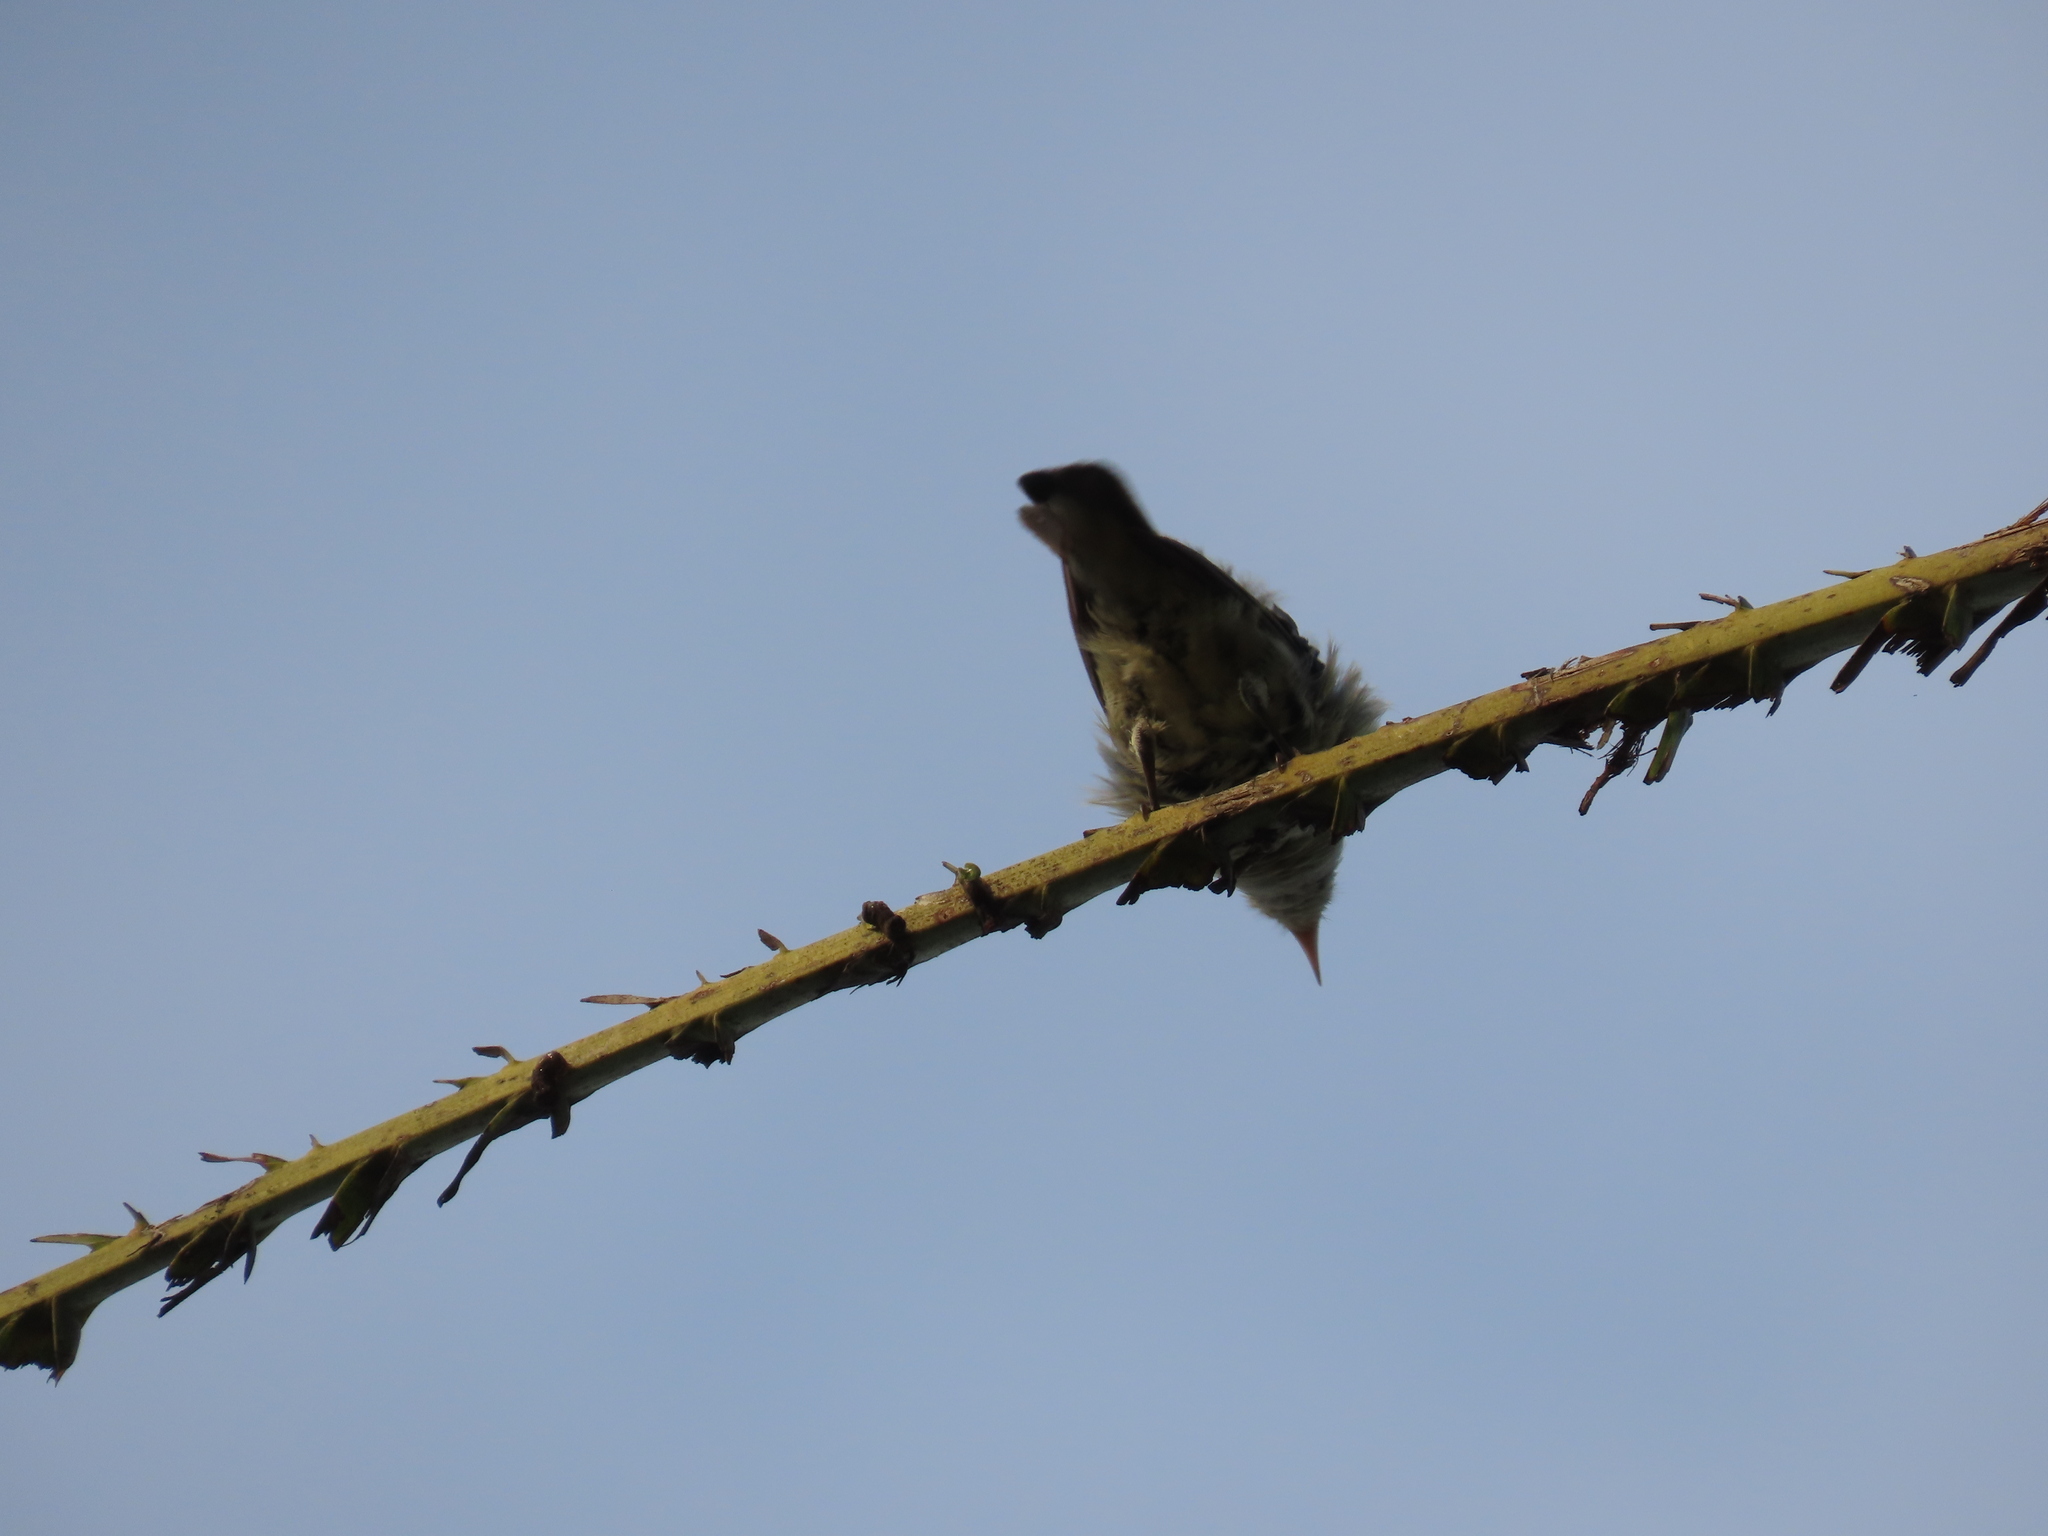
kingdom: Animalia
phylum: Chordata
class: Aves
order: Passeriformes
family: Dicaeidae
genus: Dicaeum
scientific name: Dicaeum erythrorhynchos
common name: Pale-billed flowerpecker
